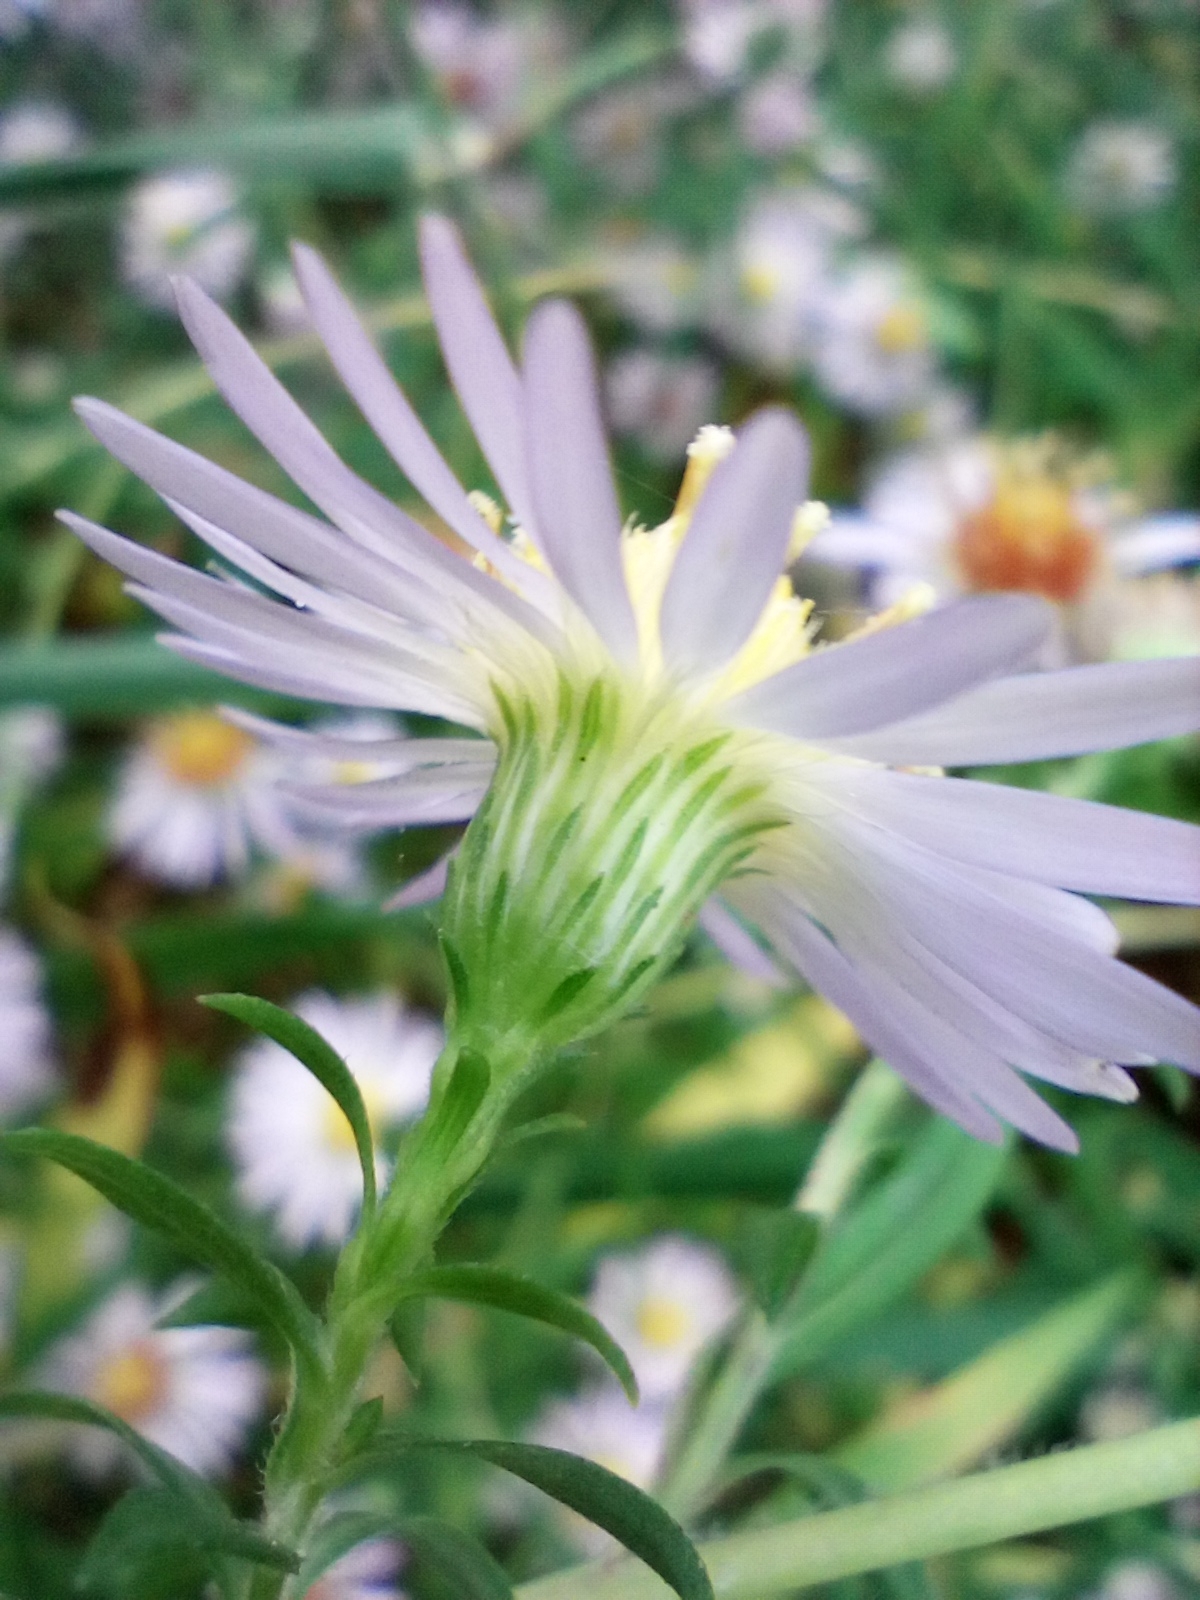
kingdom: Plantae
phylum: Tracheophyta
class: Magnoliopsida
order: Asterales
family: Asteraceae
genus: Symphyotrichum
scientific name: Symphyotrichum lanceolatum
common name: Panicled aster
